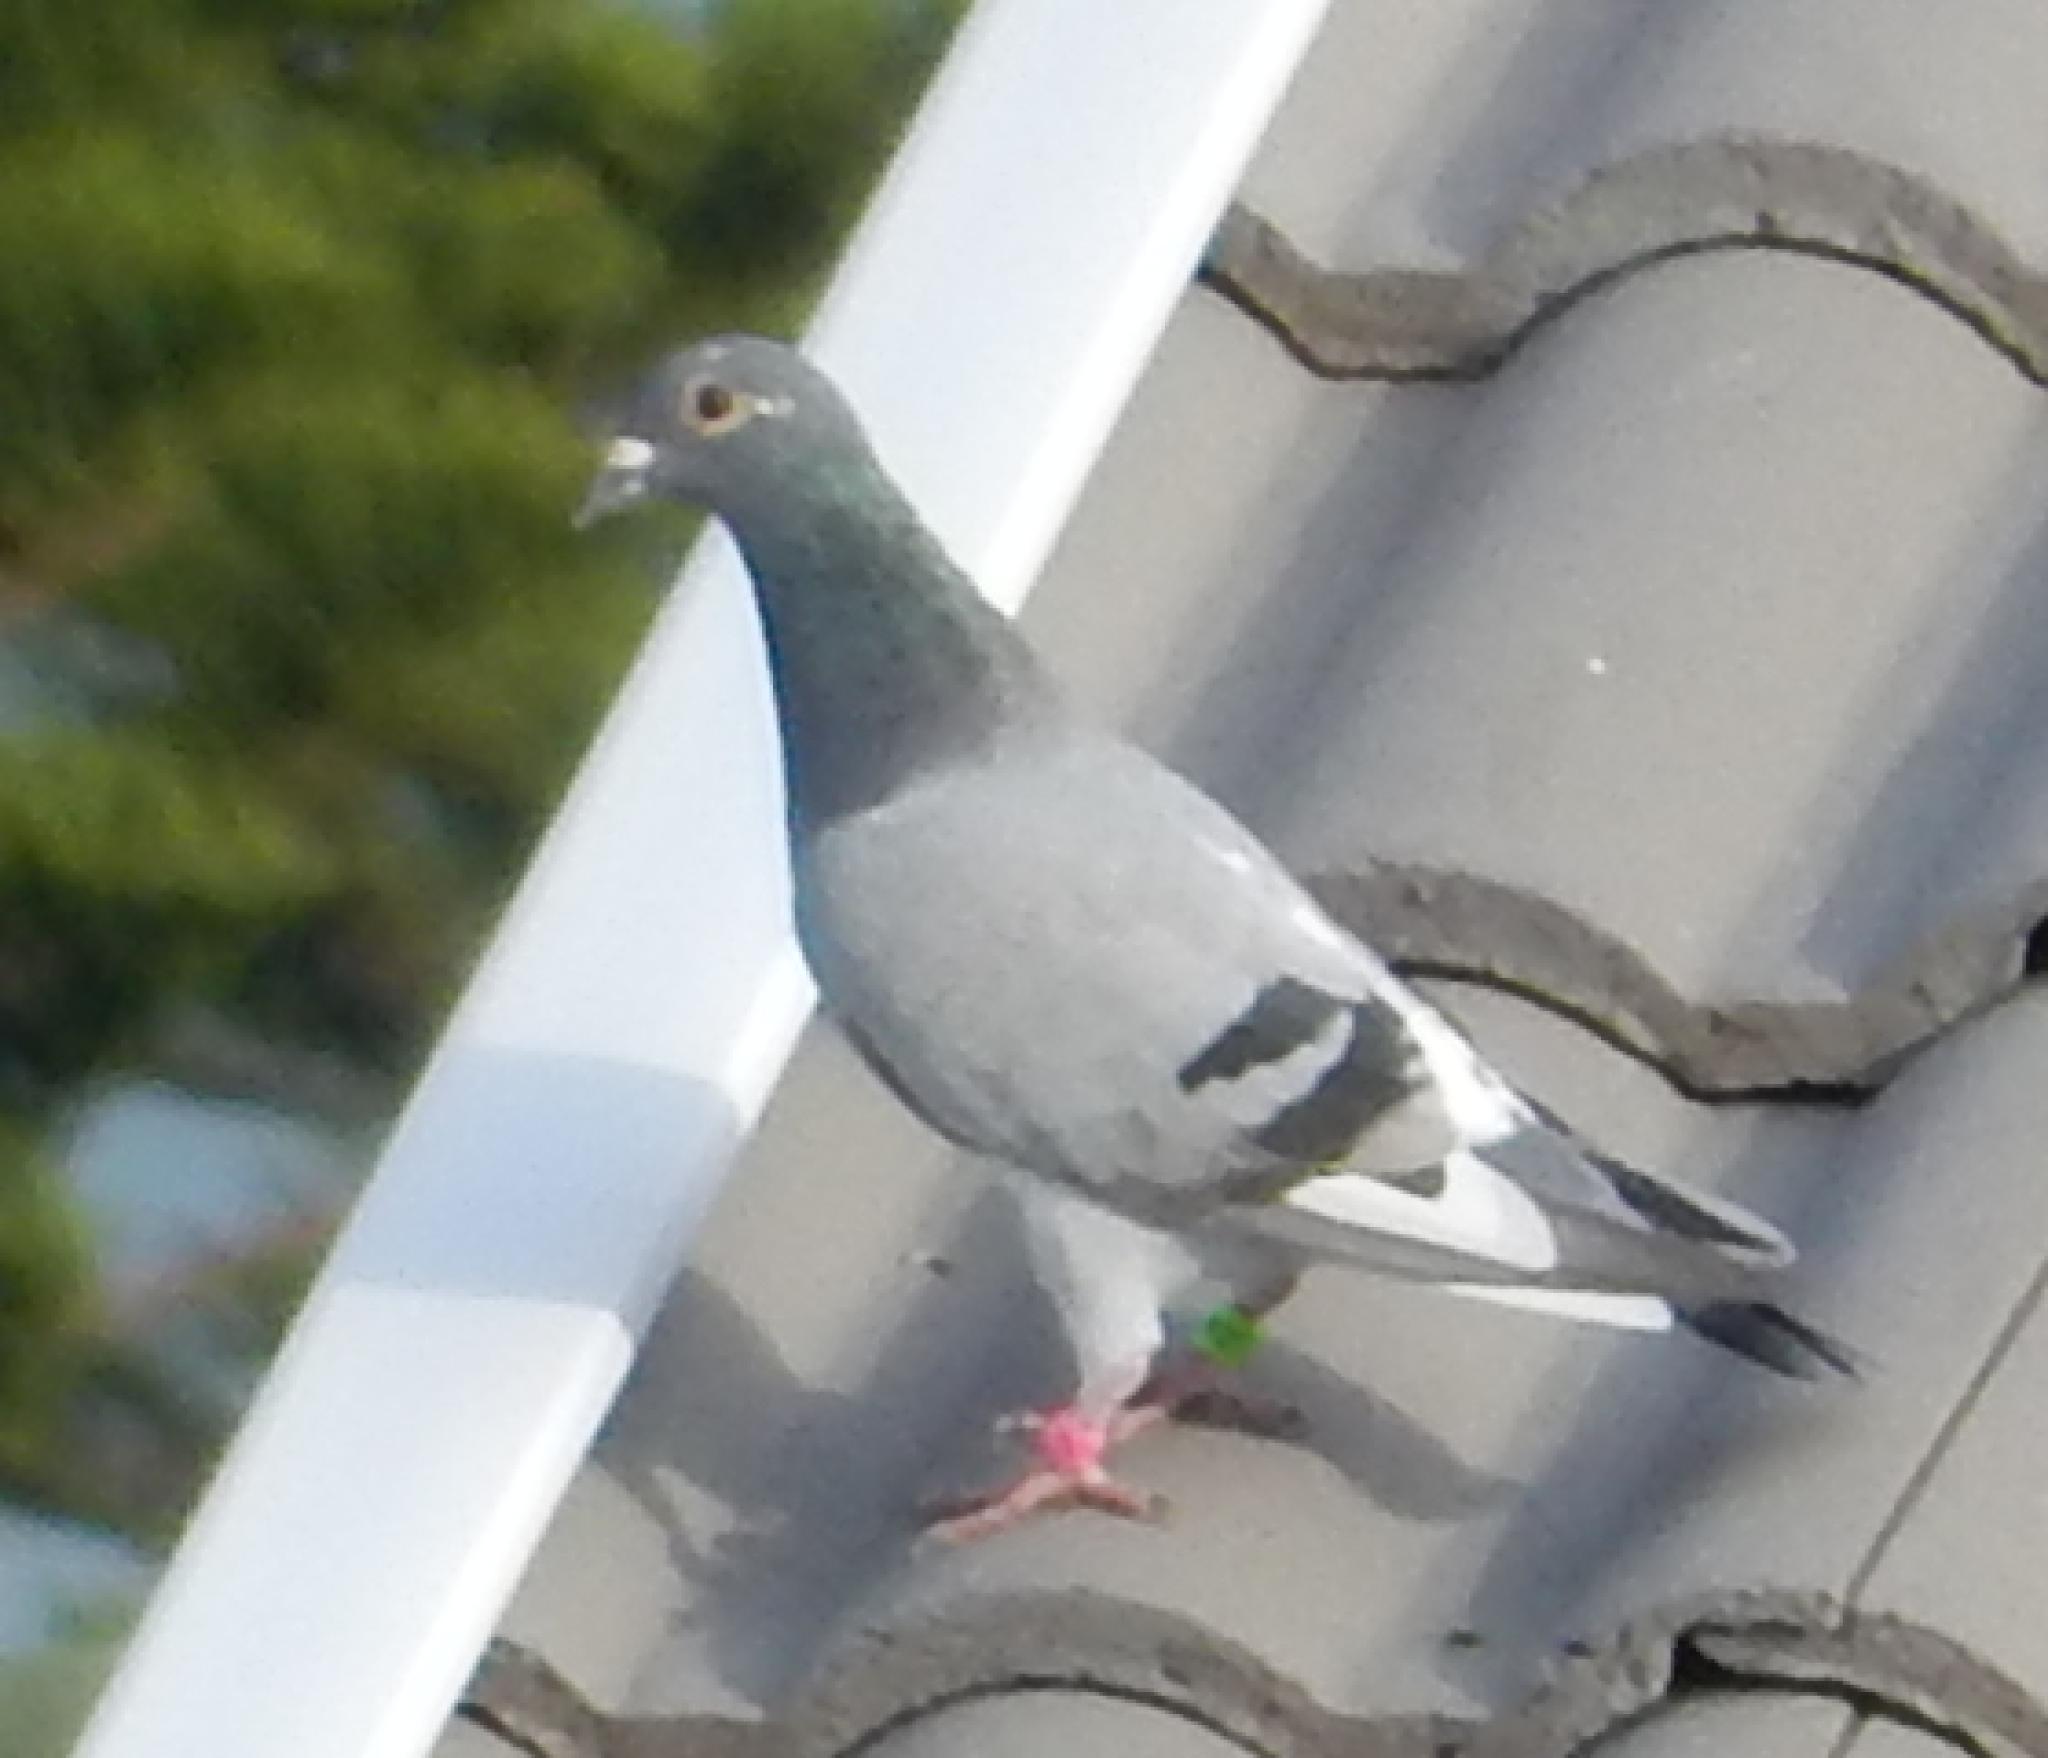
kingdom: Animalia
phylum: Chordata
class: Aves
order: Columbiformes
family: Columbidae
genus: Columba
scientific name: Columba livia
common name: Rock pigeon
